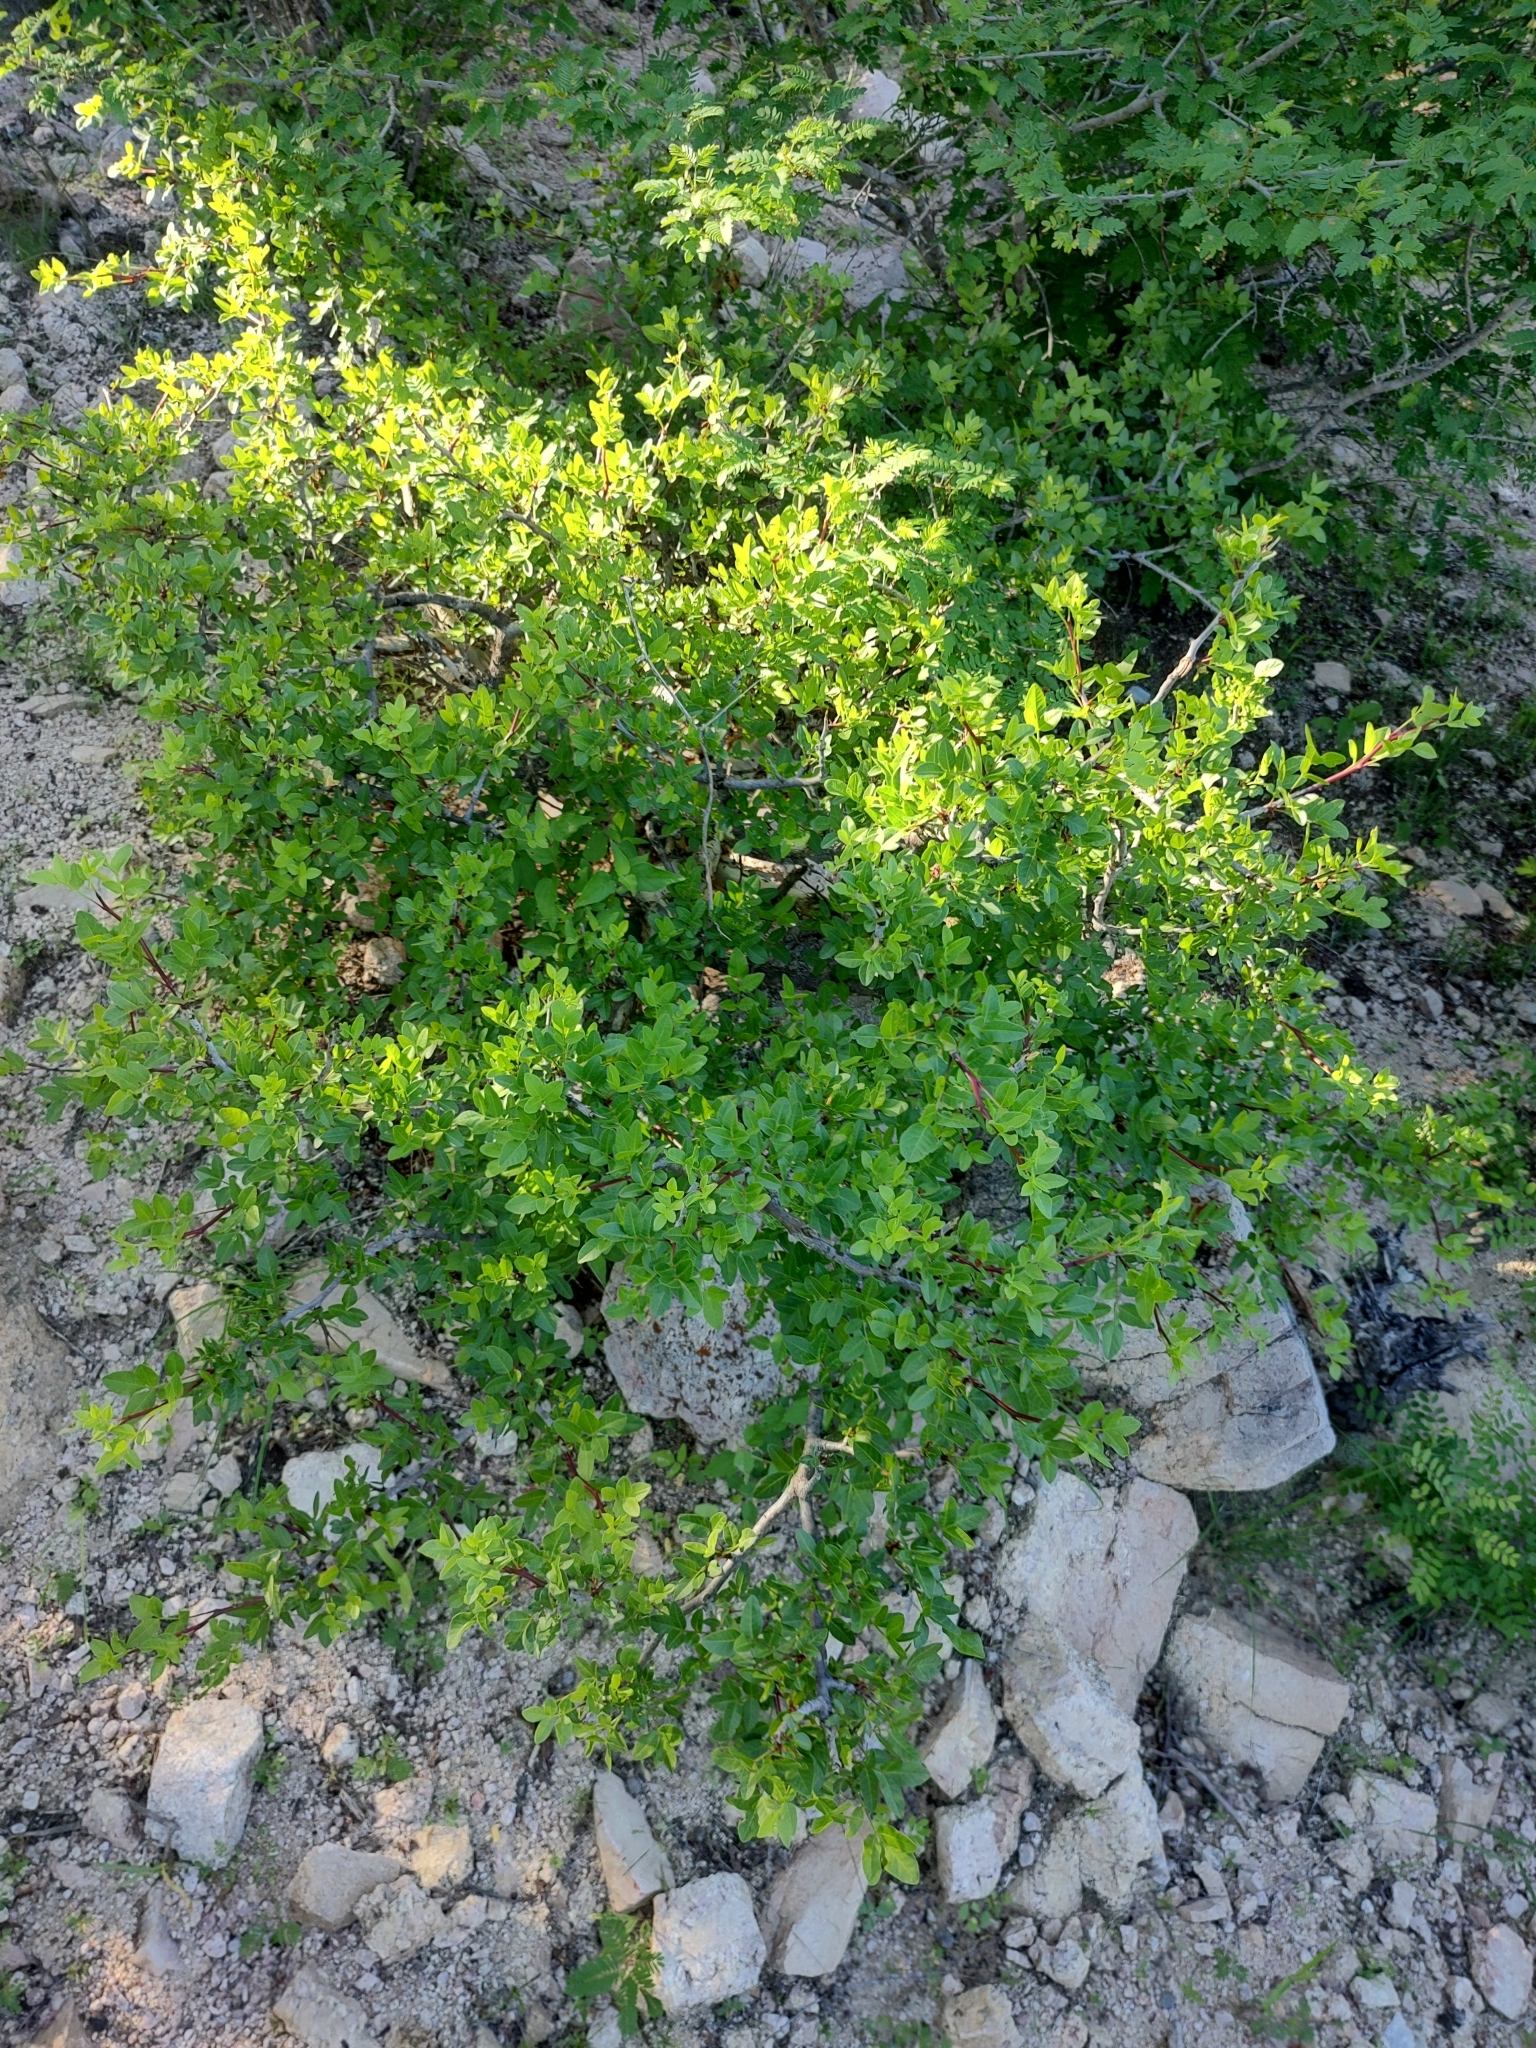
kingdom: Plantae
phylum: Tracheophyta
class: Magnoliopsida
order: Sapindales
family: Burseraceae
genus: Bursera
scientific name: Bursera fagaroides
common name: Elephant tree
